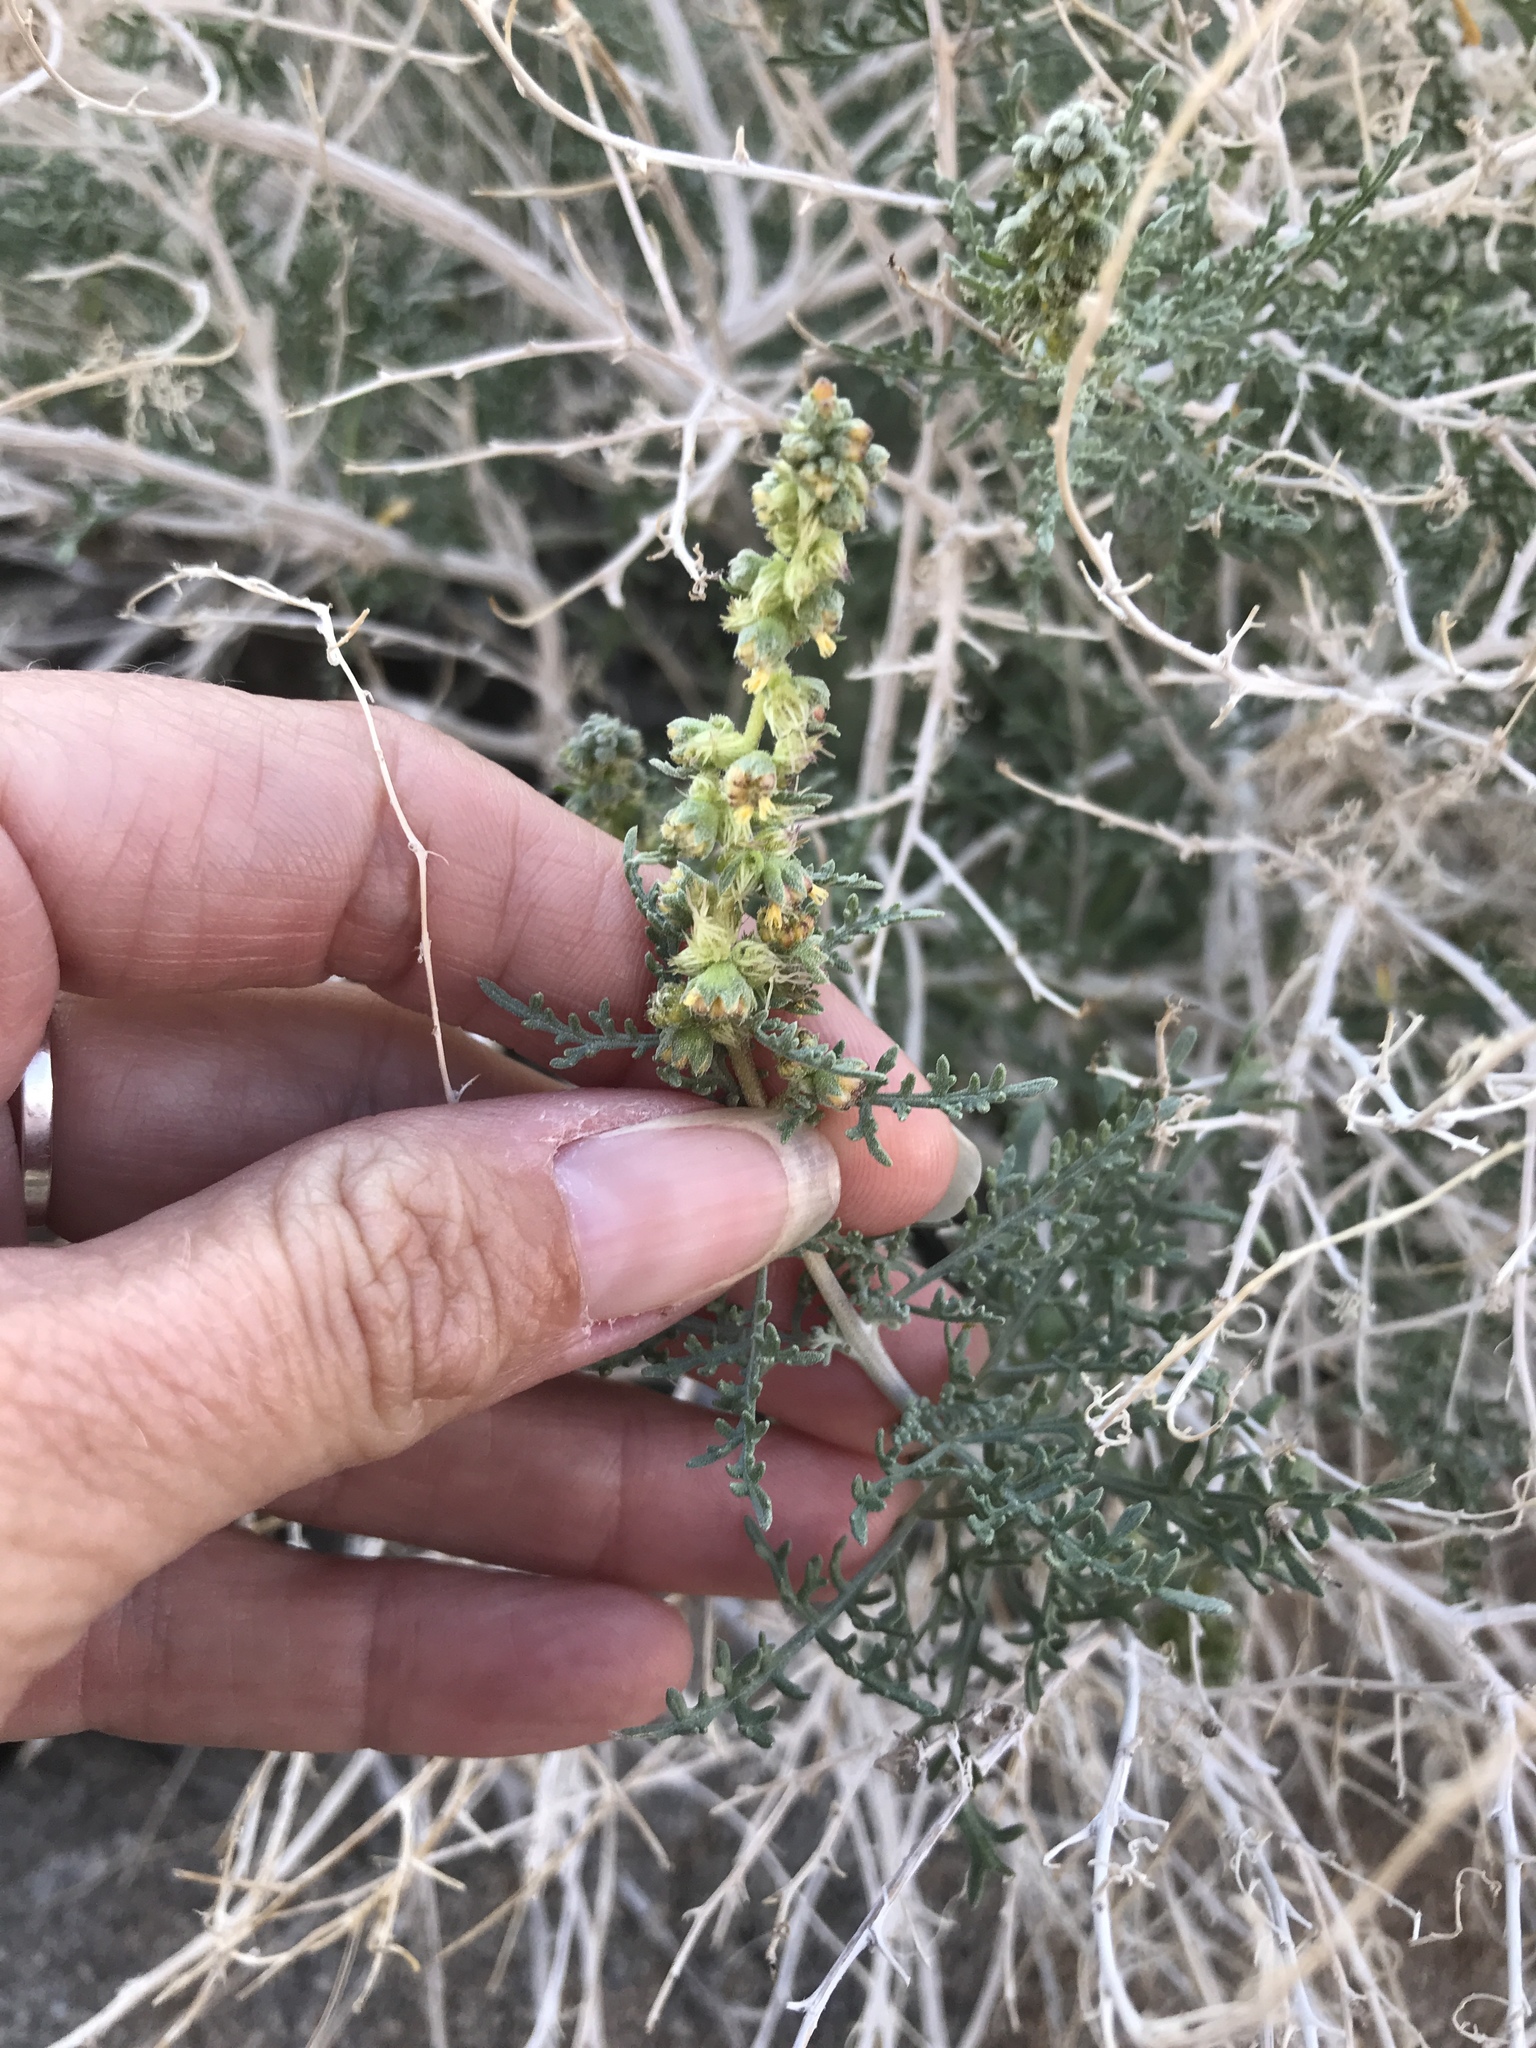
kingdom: Plantae
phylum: Tracheophyta
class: Magnoliopsida
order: Asterales
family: Asteraceae
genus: Ambrosia
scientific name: Ambrosia dumosa
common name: Bur-sage
